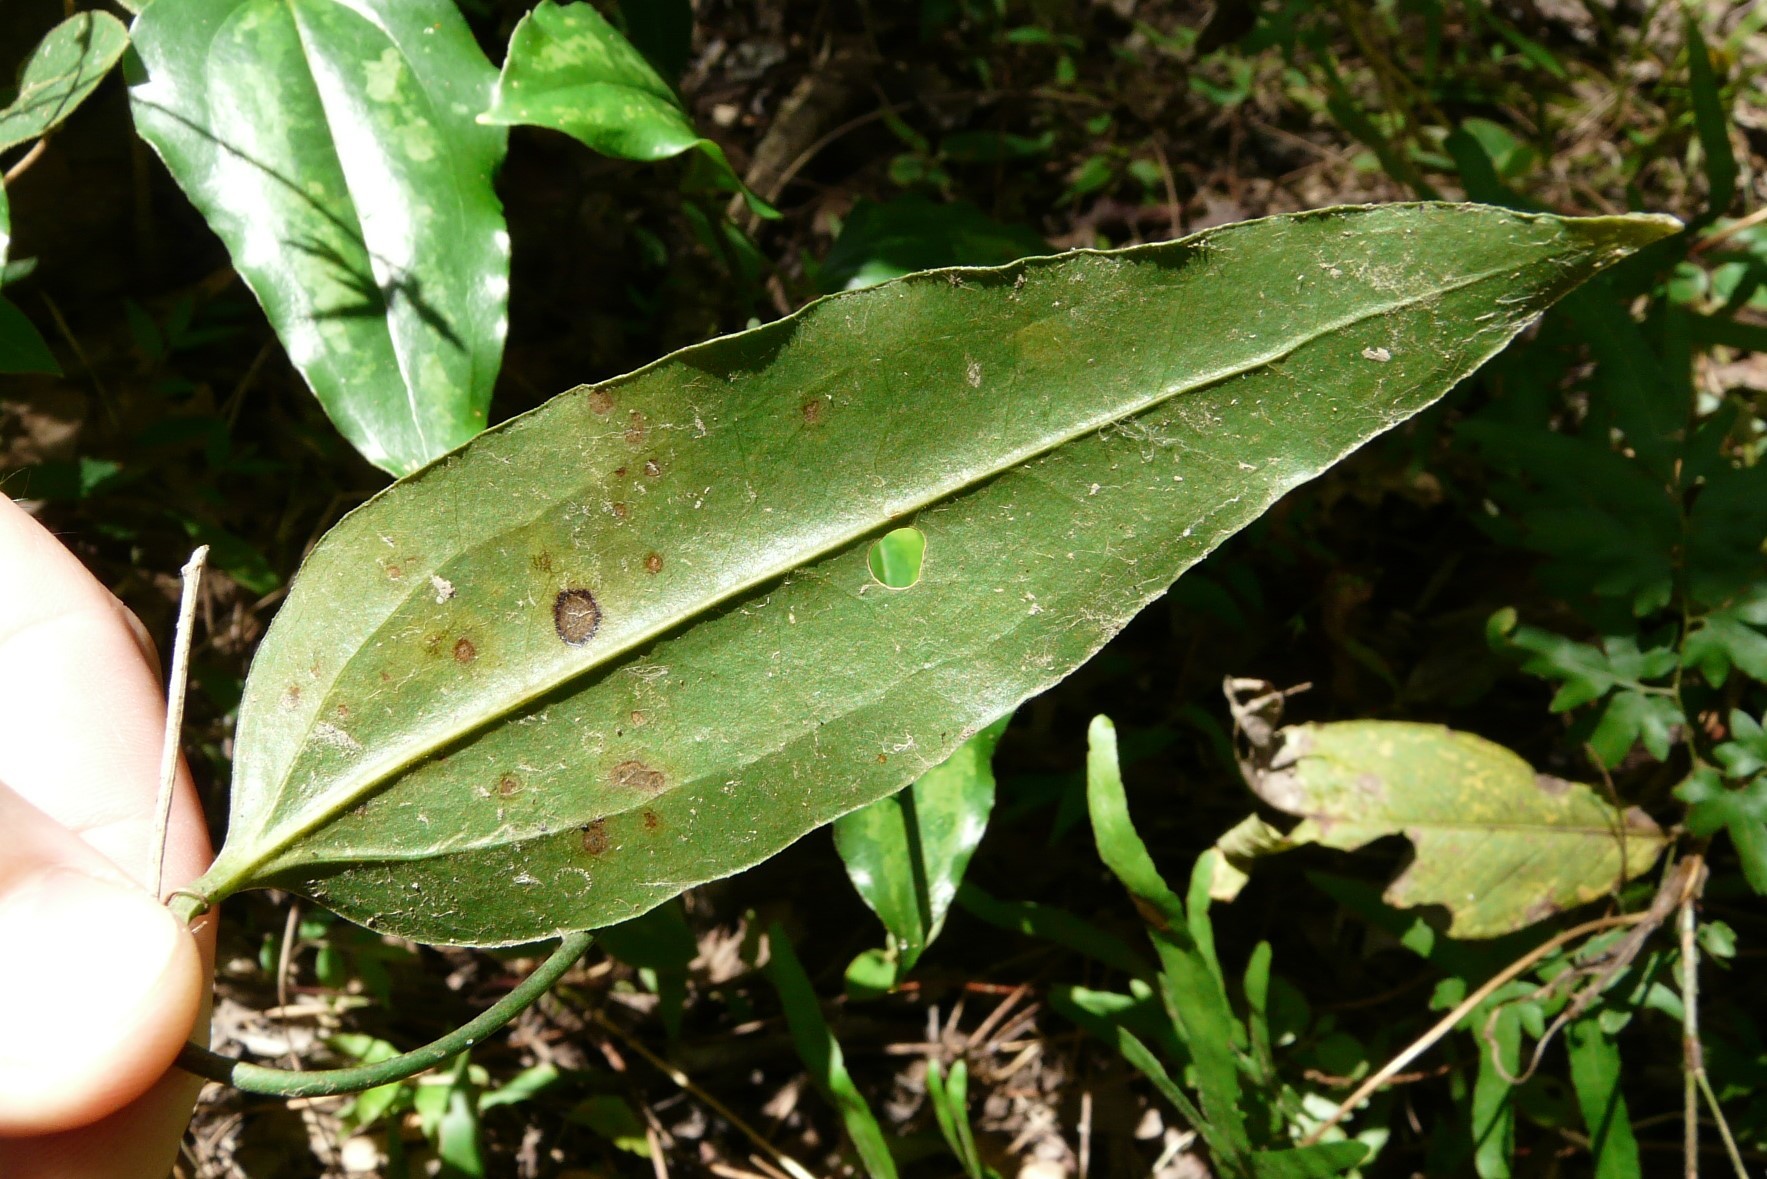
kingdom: Plantae
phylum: Tracheophyta
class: Liliopsida
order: Liliales
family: Smilacaceae
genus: Smilax
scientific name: Smilax maritima
